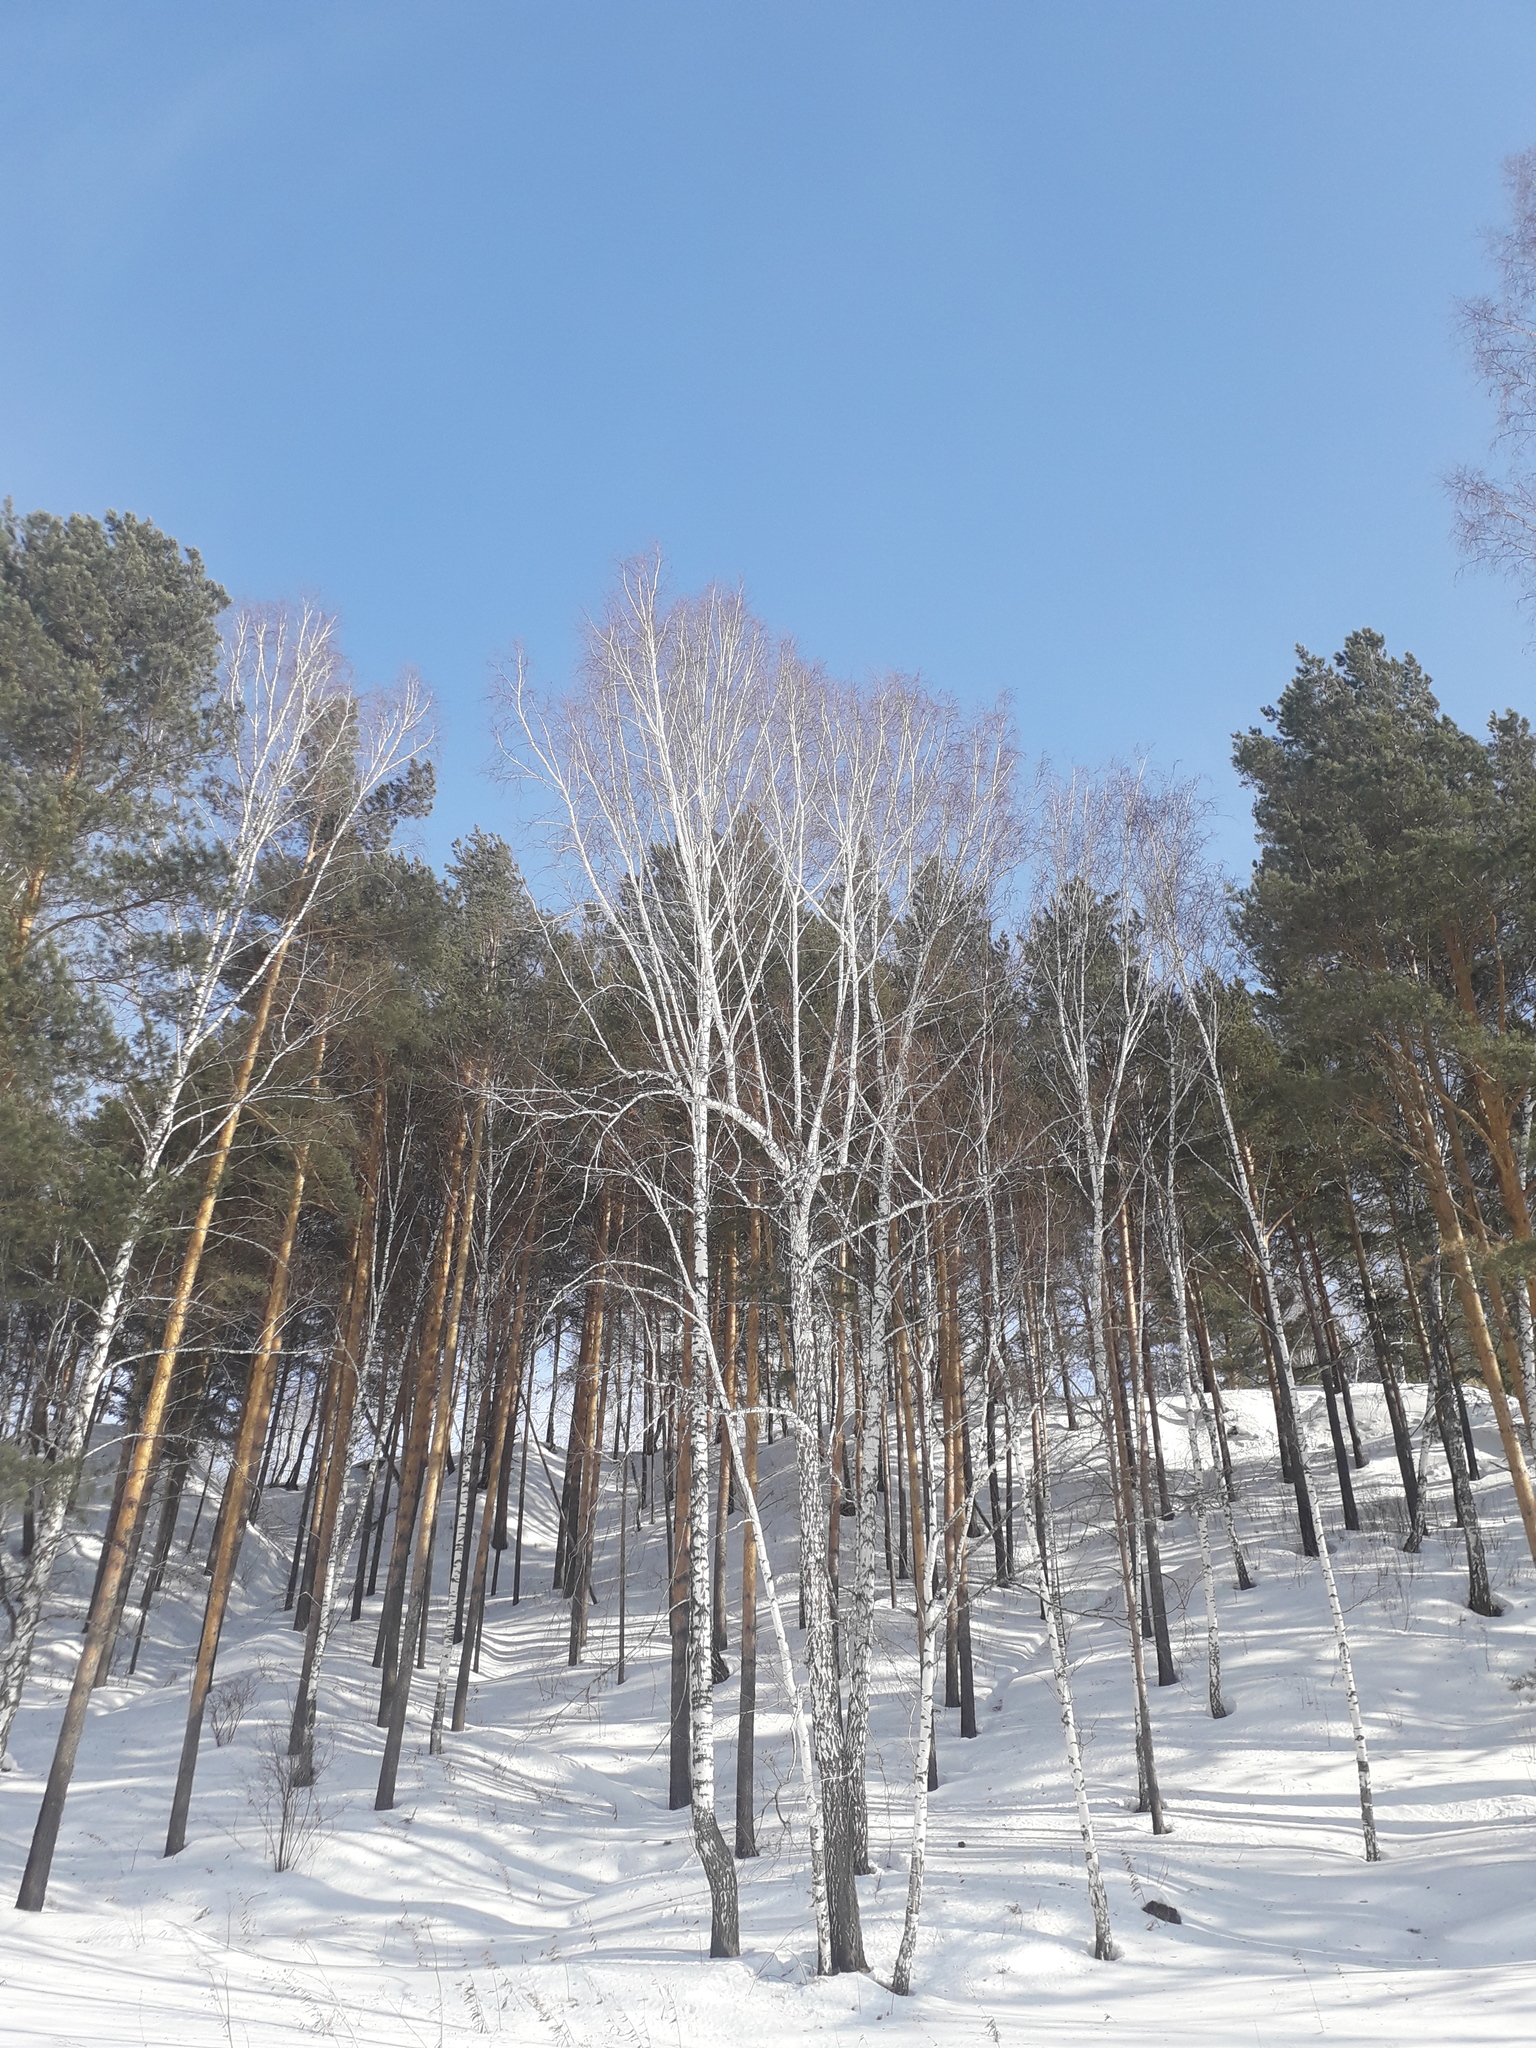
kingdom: Plantae
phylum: Tracheophyta
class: Magnoliopsida
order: Fagales
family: Betulaceae
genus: Betula
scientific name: Betula pendula
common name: Silver birch
